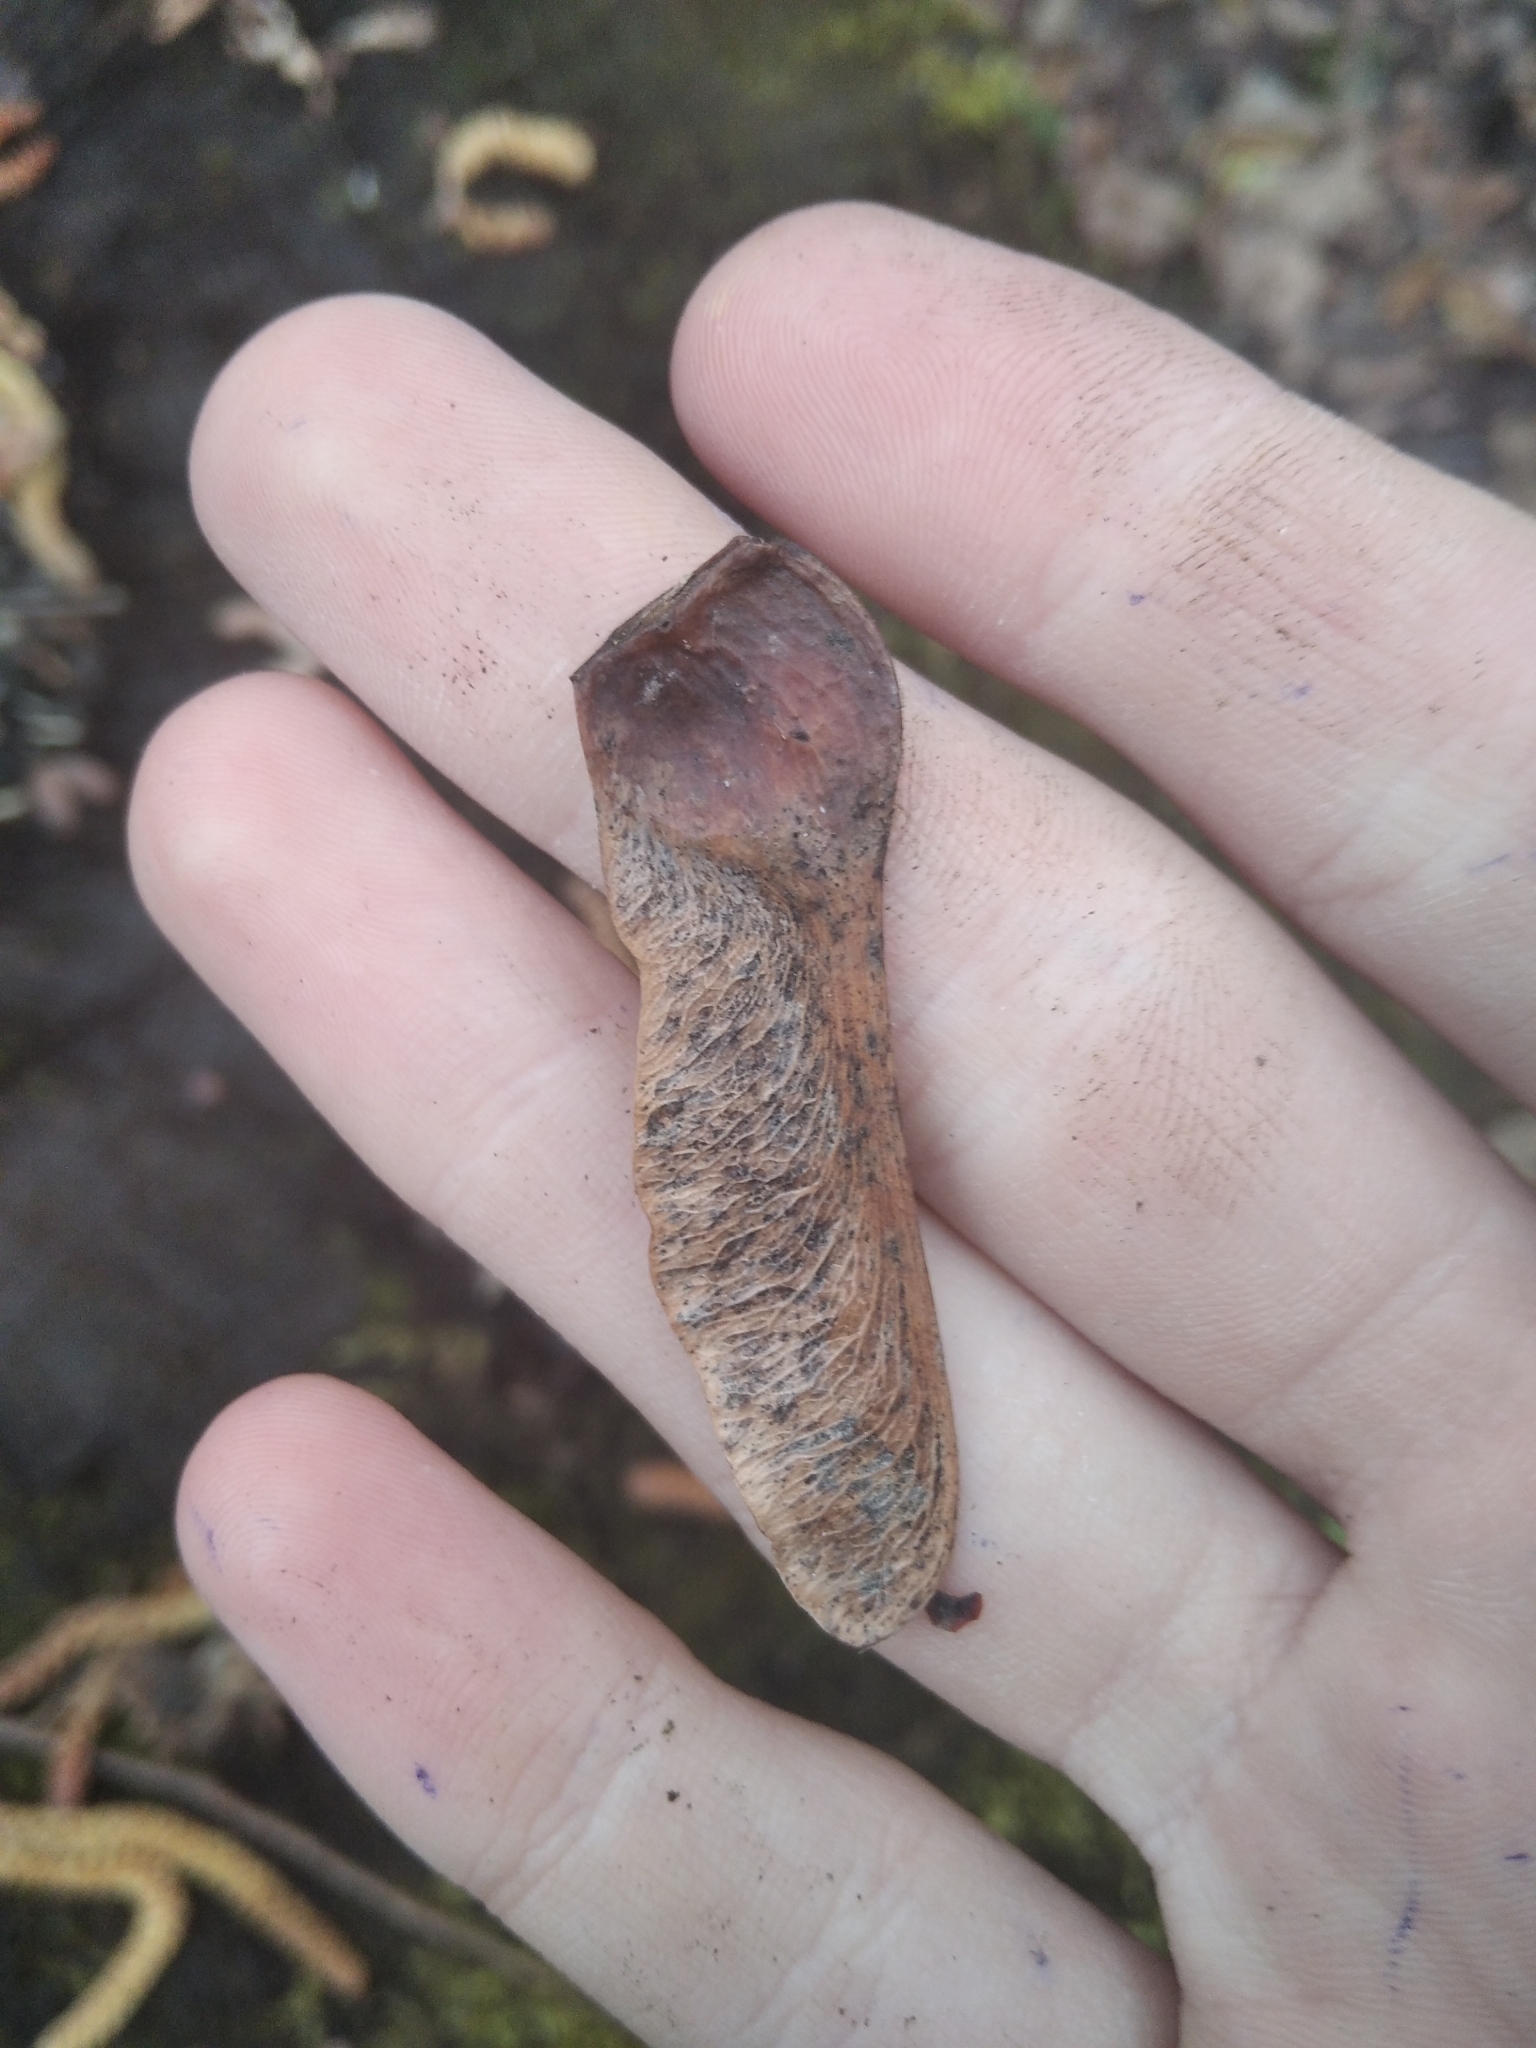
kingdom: Plantae
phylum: Tracheophyta
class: Magnoliopsida
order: Sapindales
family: Sapindaceae
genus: Acer
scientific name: Acer platanoides
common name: Norway maple
